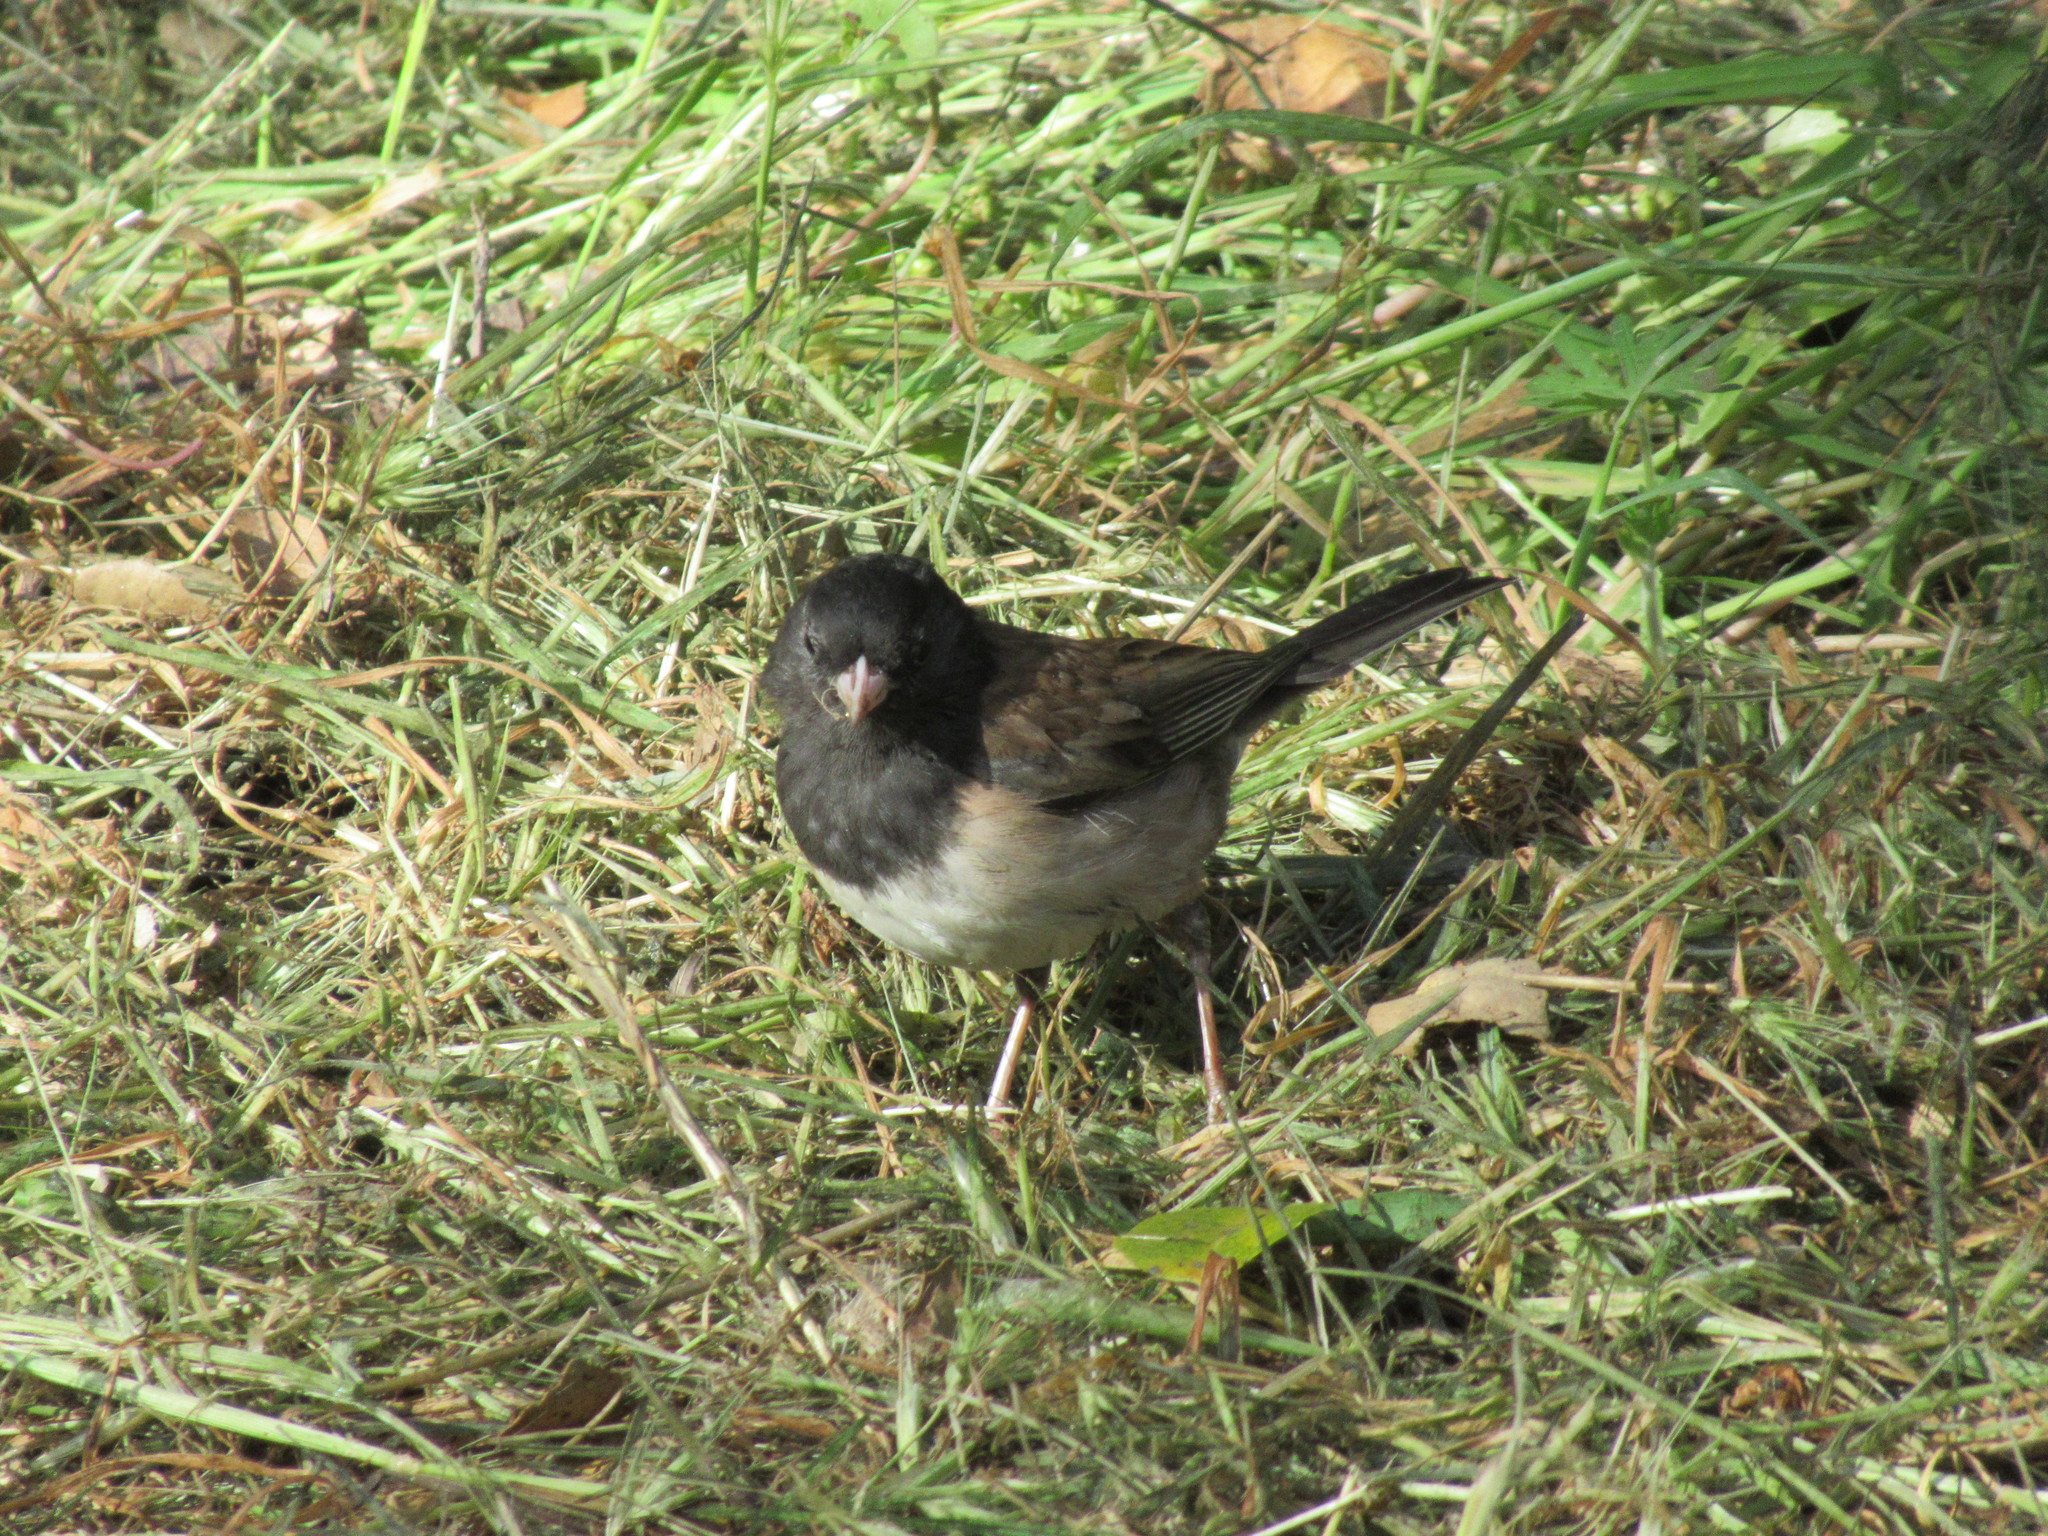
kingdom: Animalia
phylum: Chordata
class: Aves
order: Passeriformes
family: Passerellidae
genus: Junco
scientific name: Junco hyemalis
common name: Dark-eyed junco
